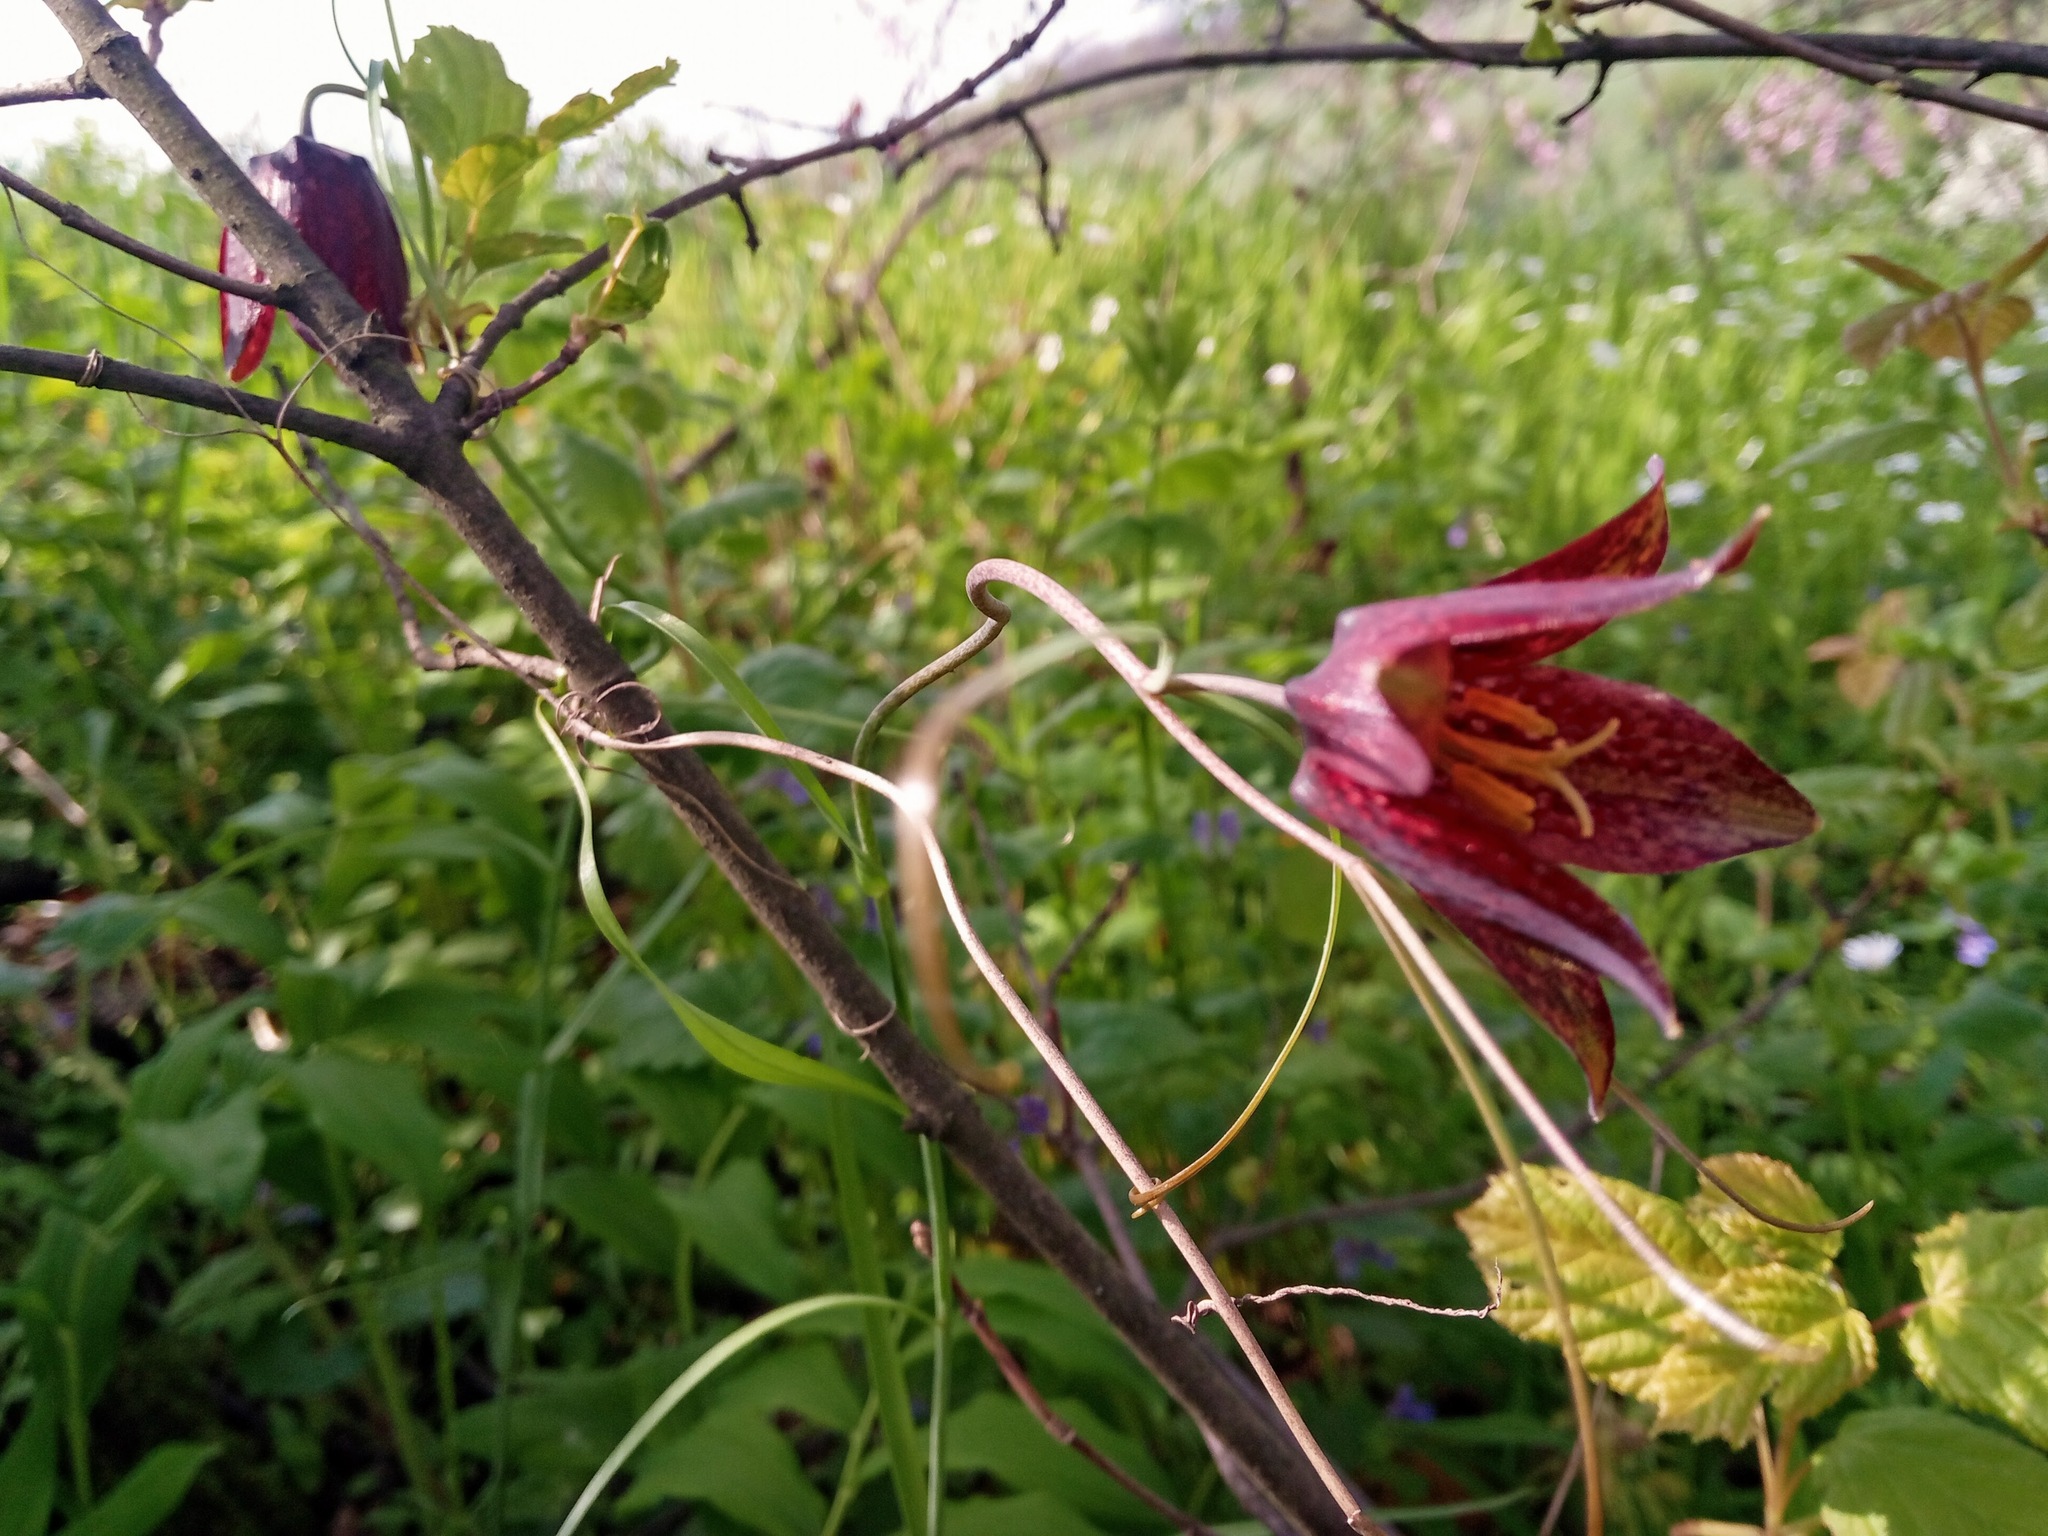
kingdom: Plantae
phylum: Tracheophyta
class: Liliopsida
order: Liliales
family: Liliaceae
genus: Fritillaria
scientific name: Fritillaria ruthenica
